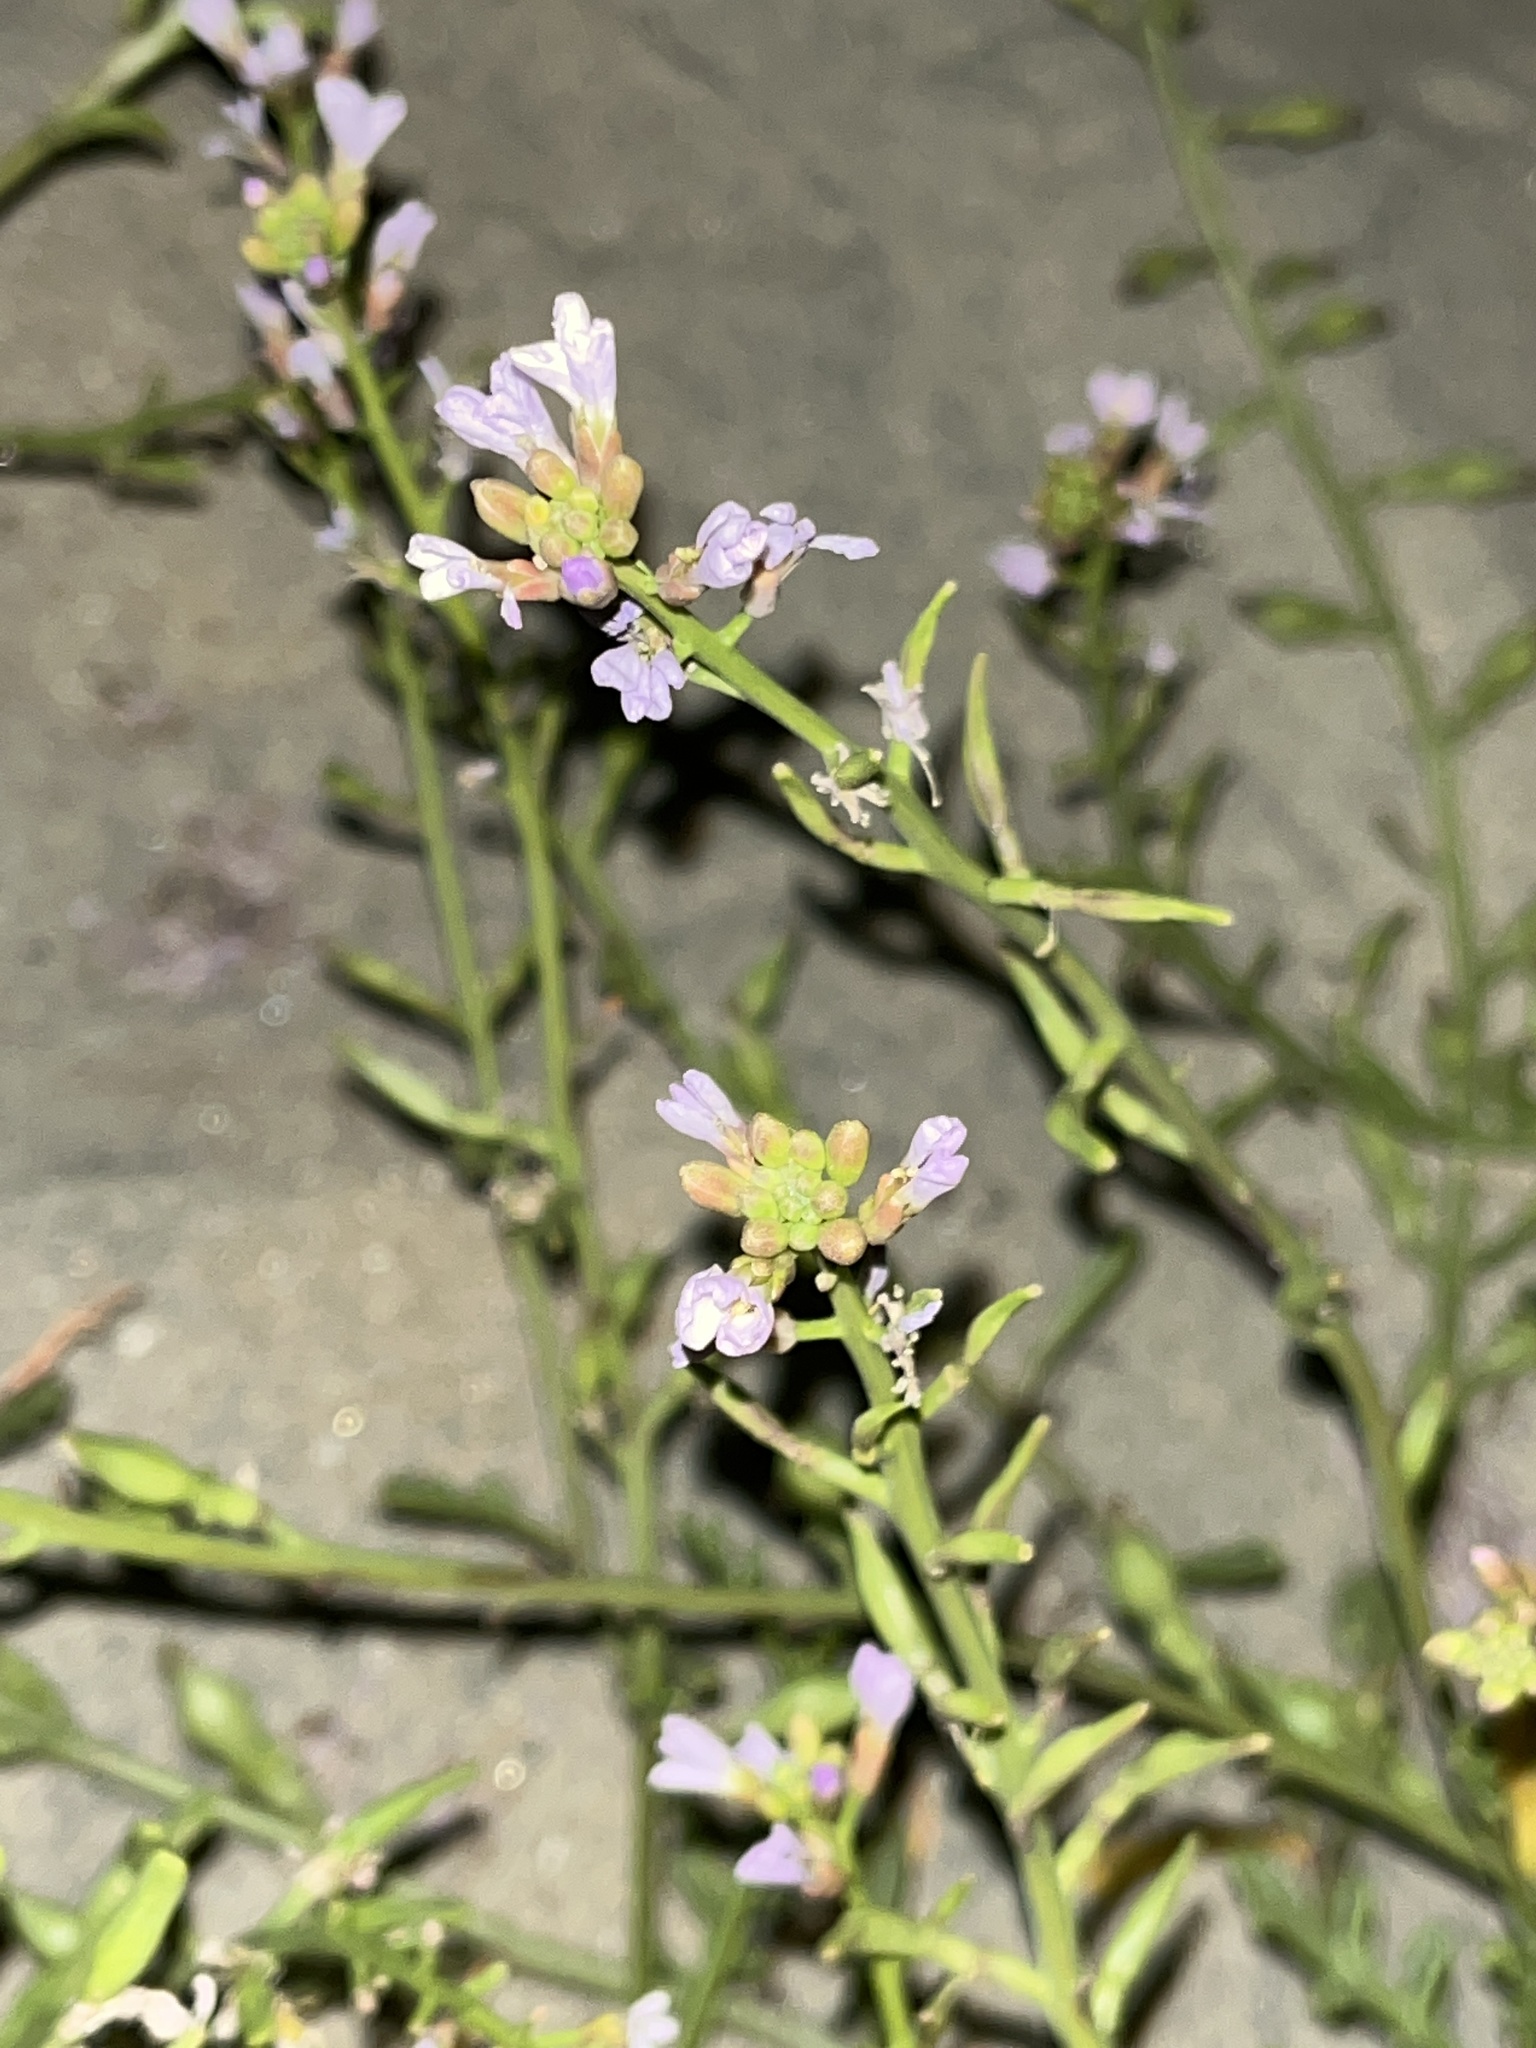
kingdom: Plantae
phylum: Tracheophyta
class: Magnoliopsida
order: Brassicales
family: Brassicaceae
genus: Cakile
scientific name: Cakile maritima
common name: Sea rocket
